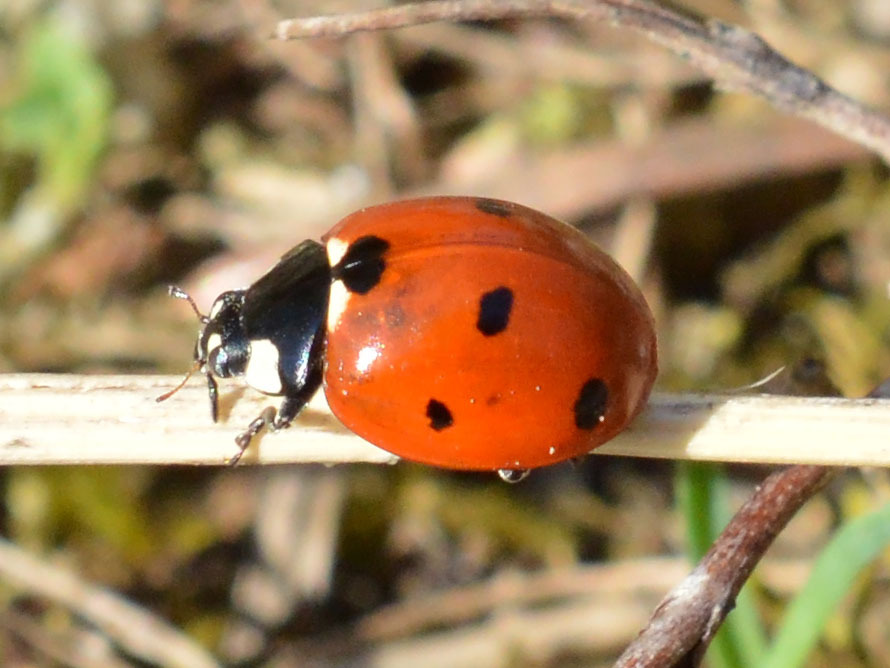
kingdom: Animalia
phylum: Arthropoda
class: Insecta
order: Coleoptera
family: Coccinellidae
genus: Coccinella
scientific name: Coccinella septempunctata
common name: Sevenspotted lady beetle
